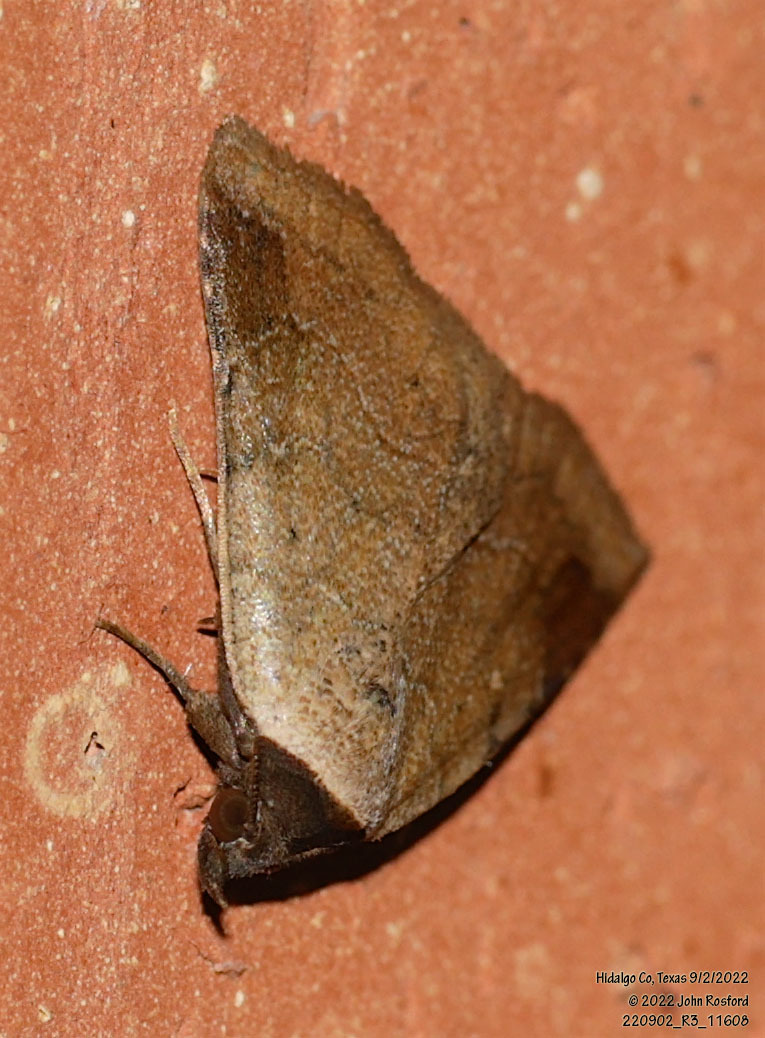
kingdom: Animalia
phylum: Arthropoda
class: Insecta
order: Lepidoptera
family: Erebidae
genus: Isogona
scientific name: Isogona texana
